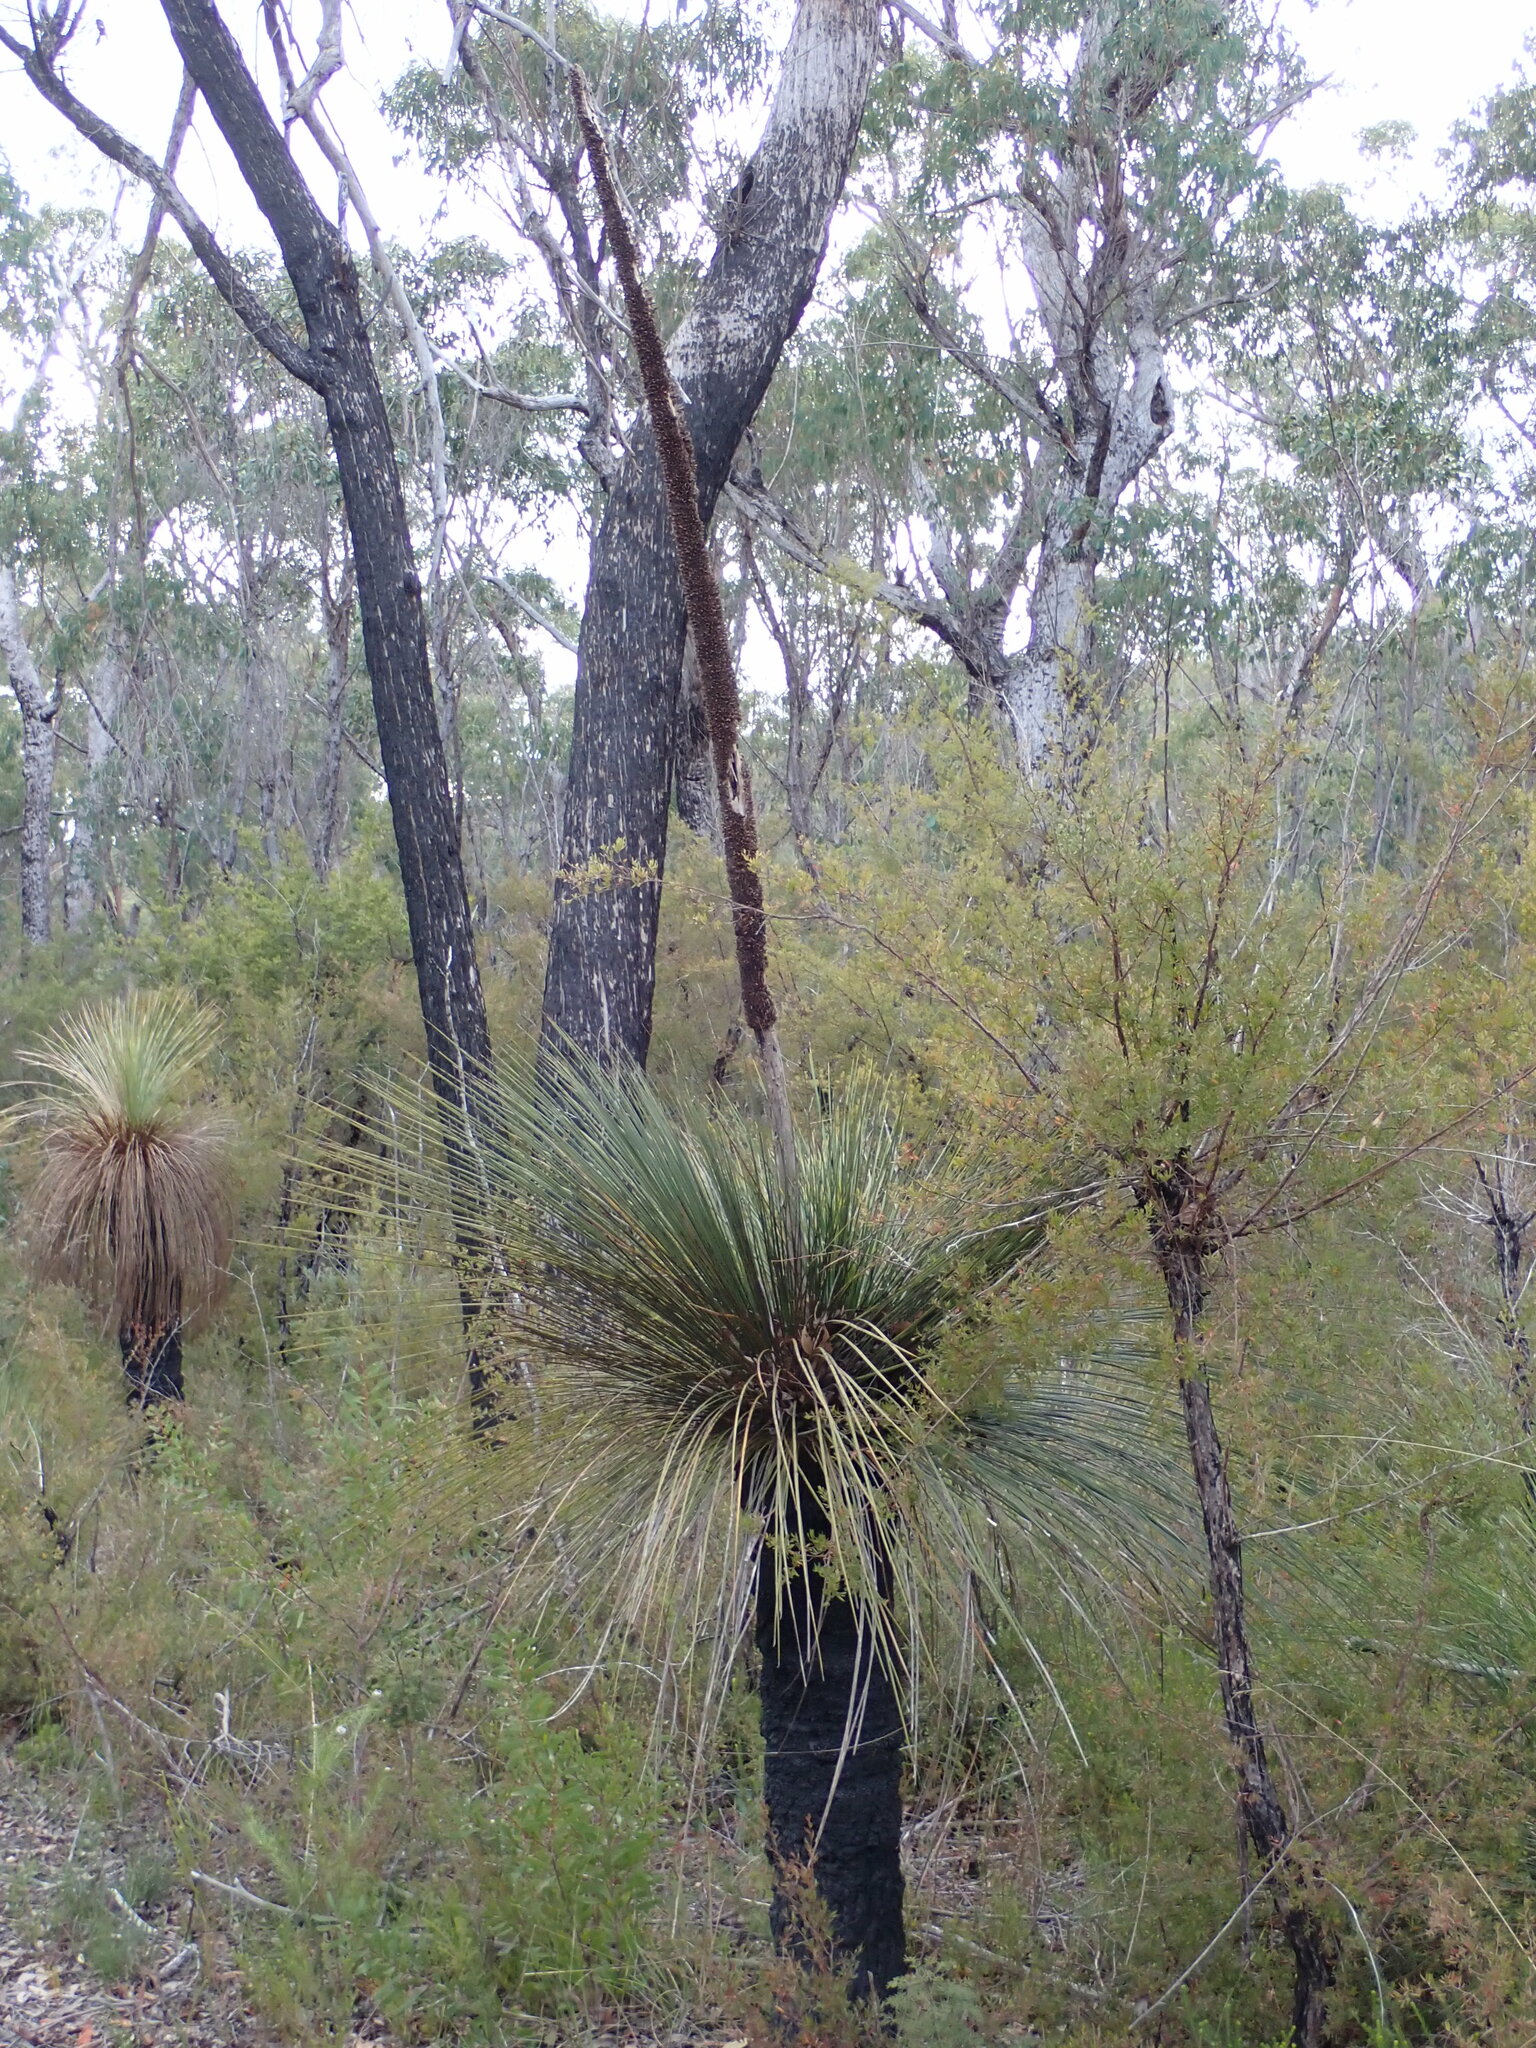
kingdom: Plantae
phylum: Tracheophyta
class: Liliopsida
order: Asparagales
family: Asphodelaceae
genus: Xanthorrhoea
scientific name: Xanthorrhoea glauca
